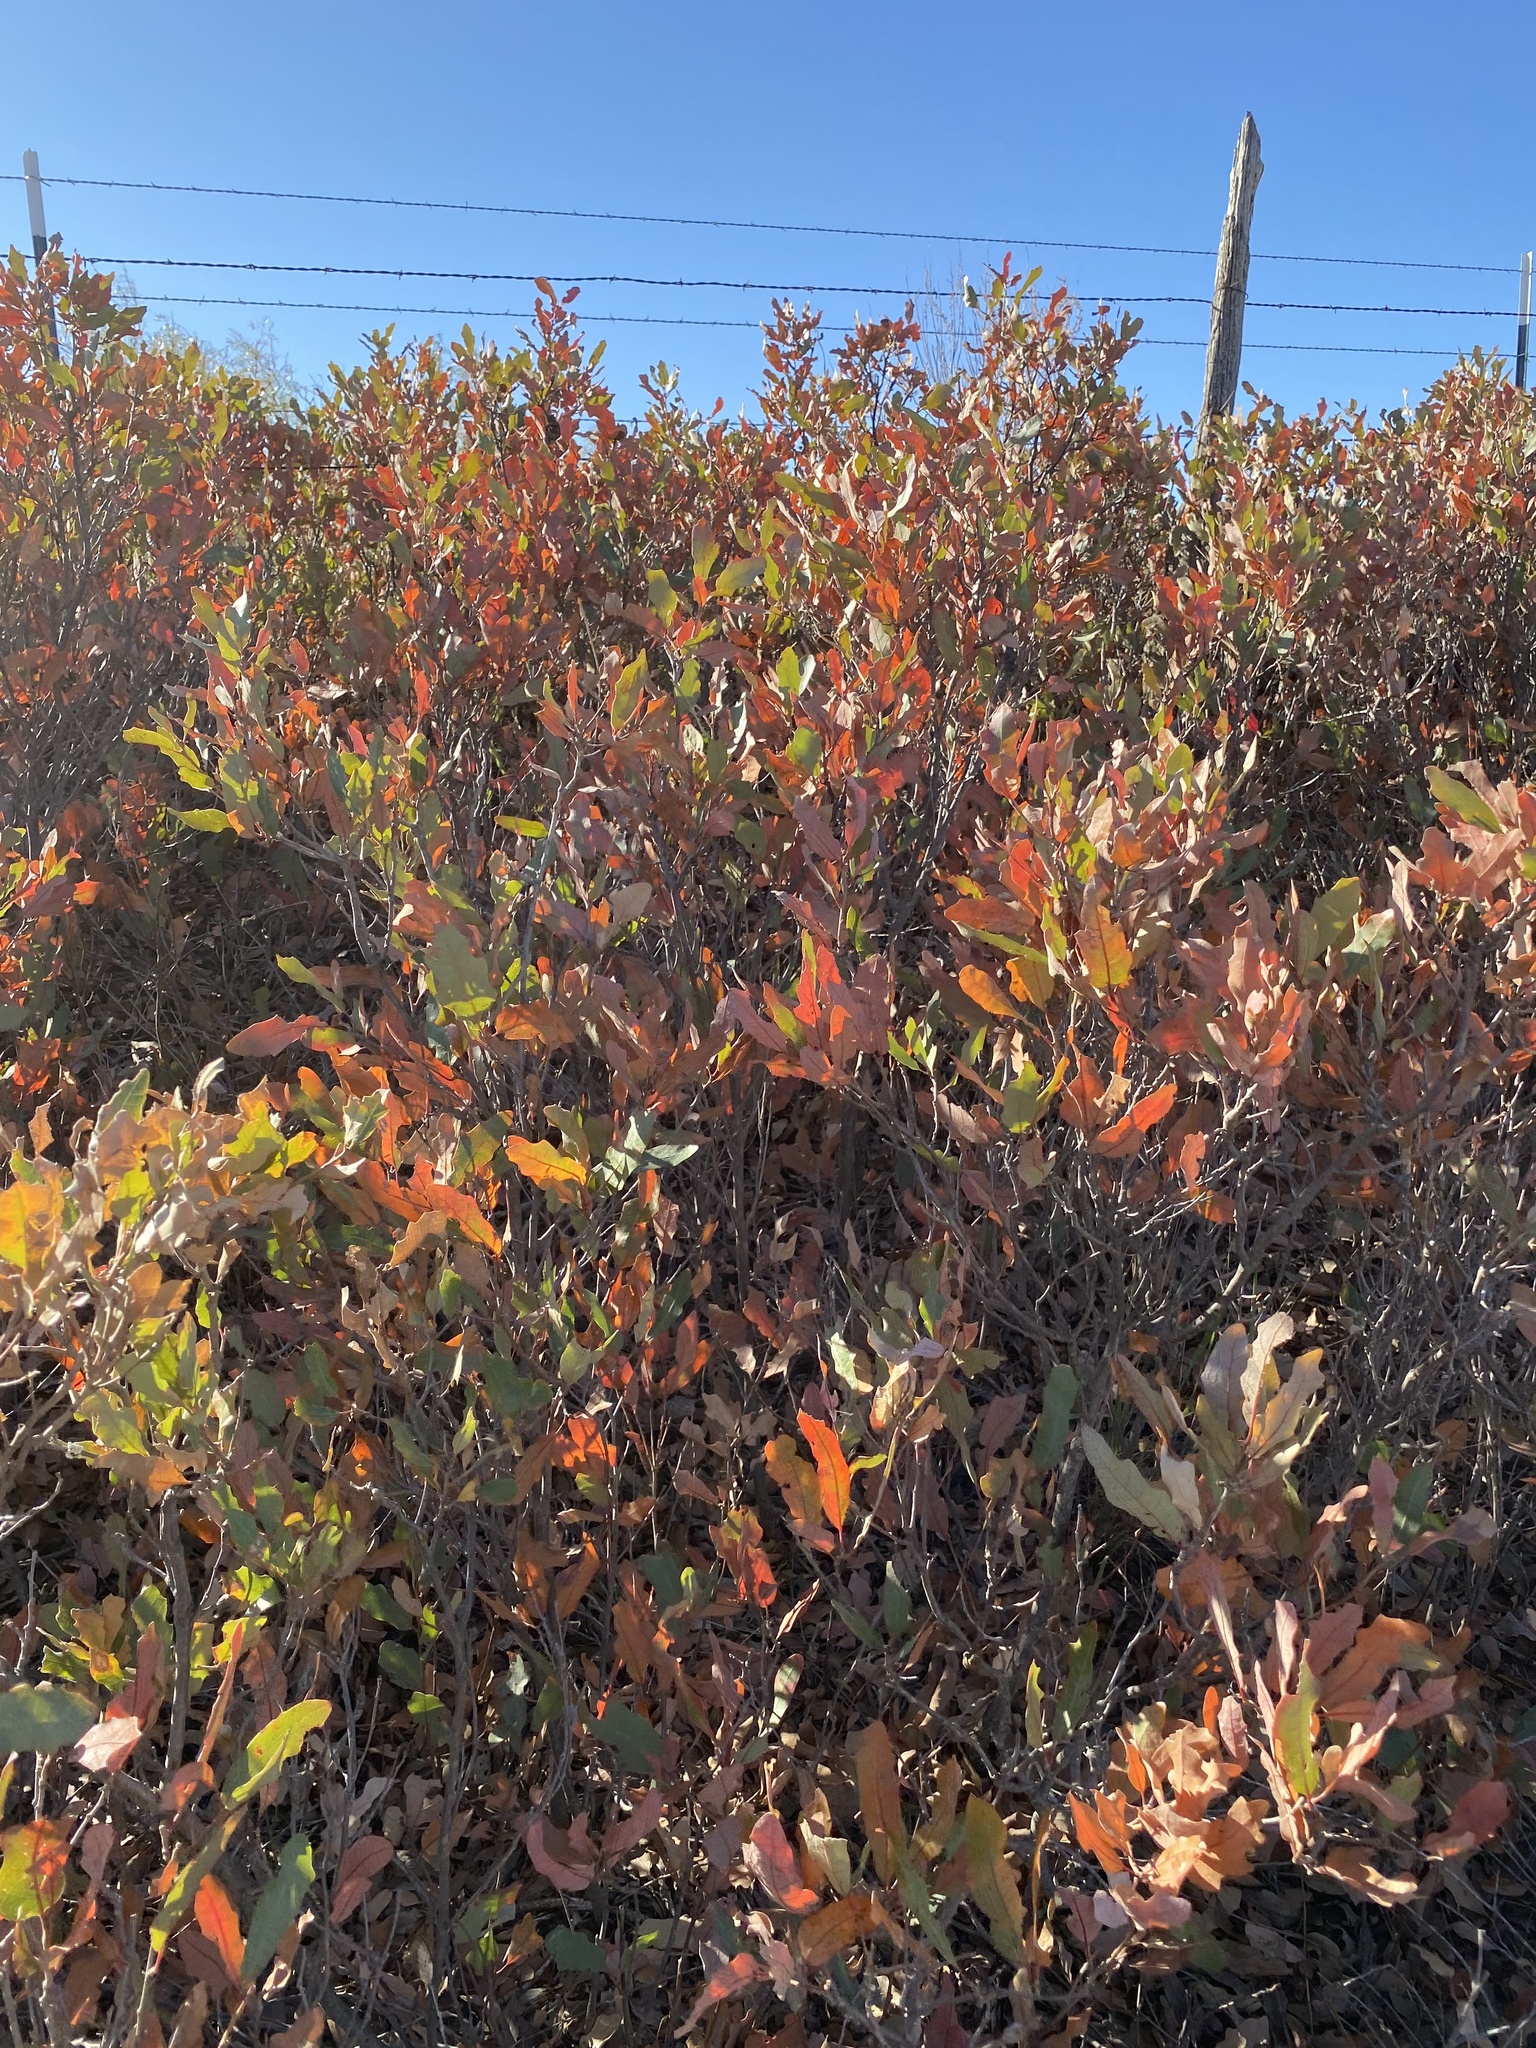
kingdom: Plantae
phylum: Tracheophyta
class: Magnoliopsida
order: Fagales
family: Fagaceae
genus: Quercus
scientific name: Quercus havardii
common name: Shinnery oak
